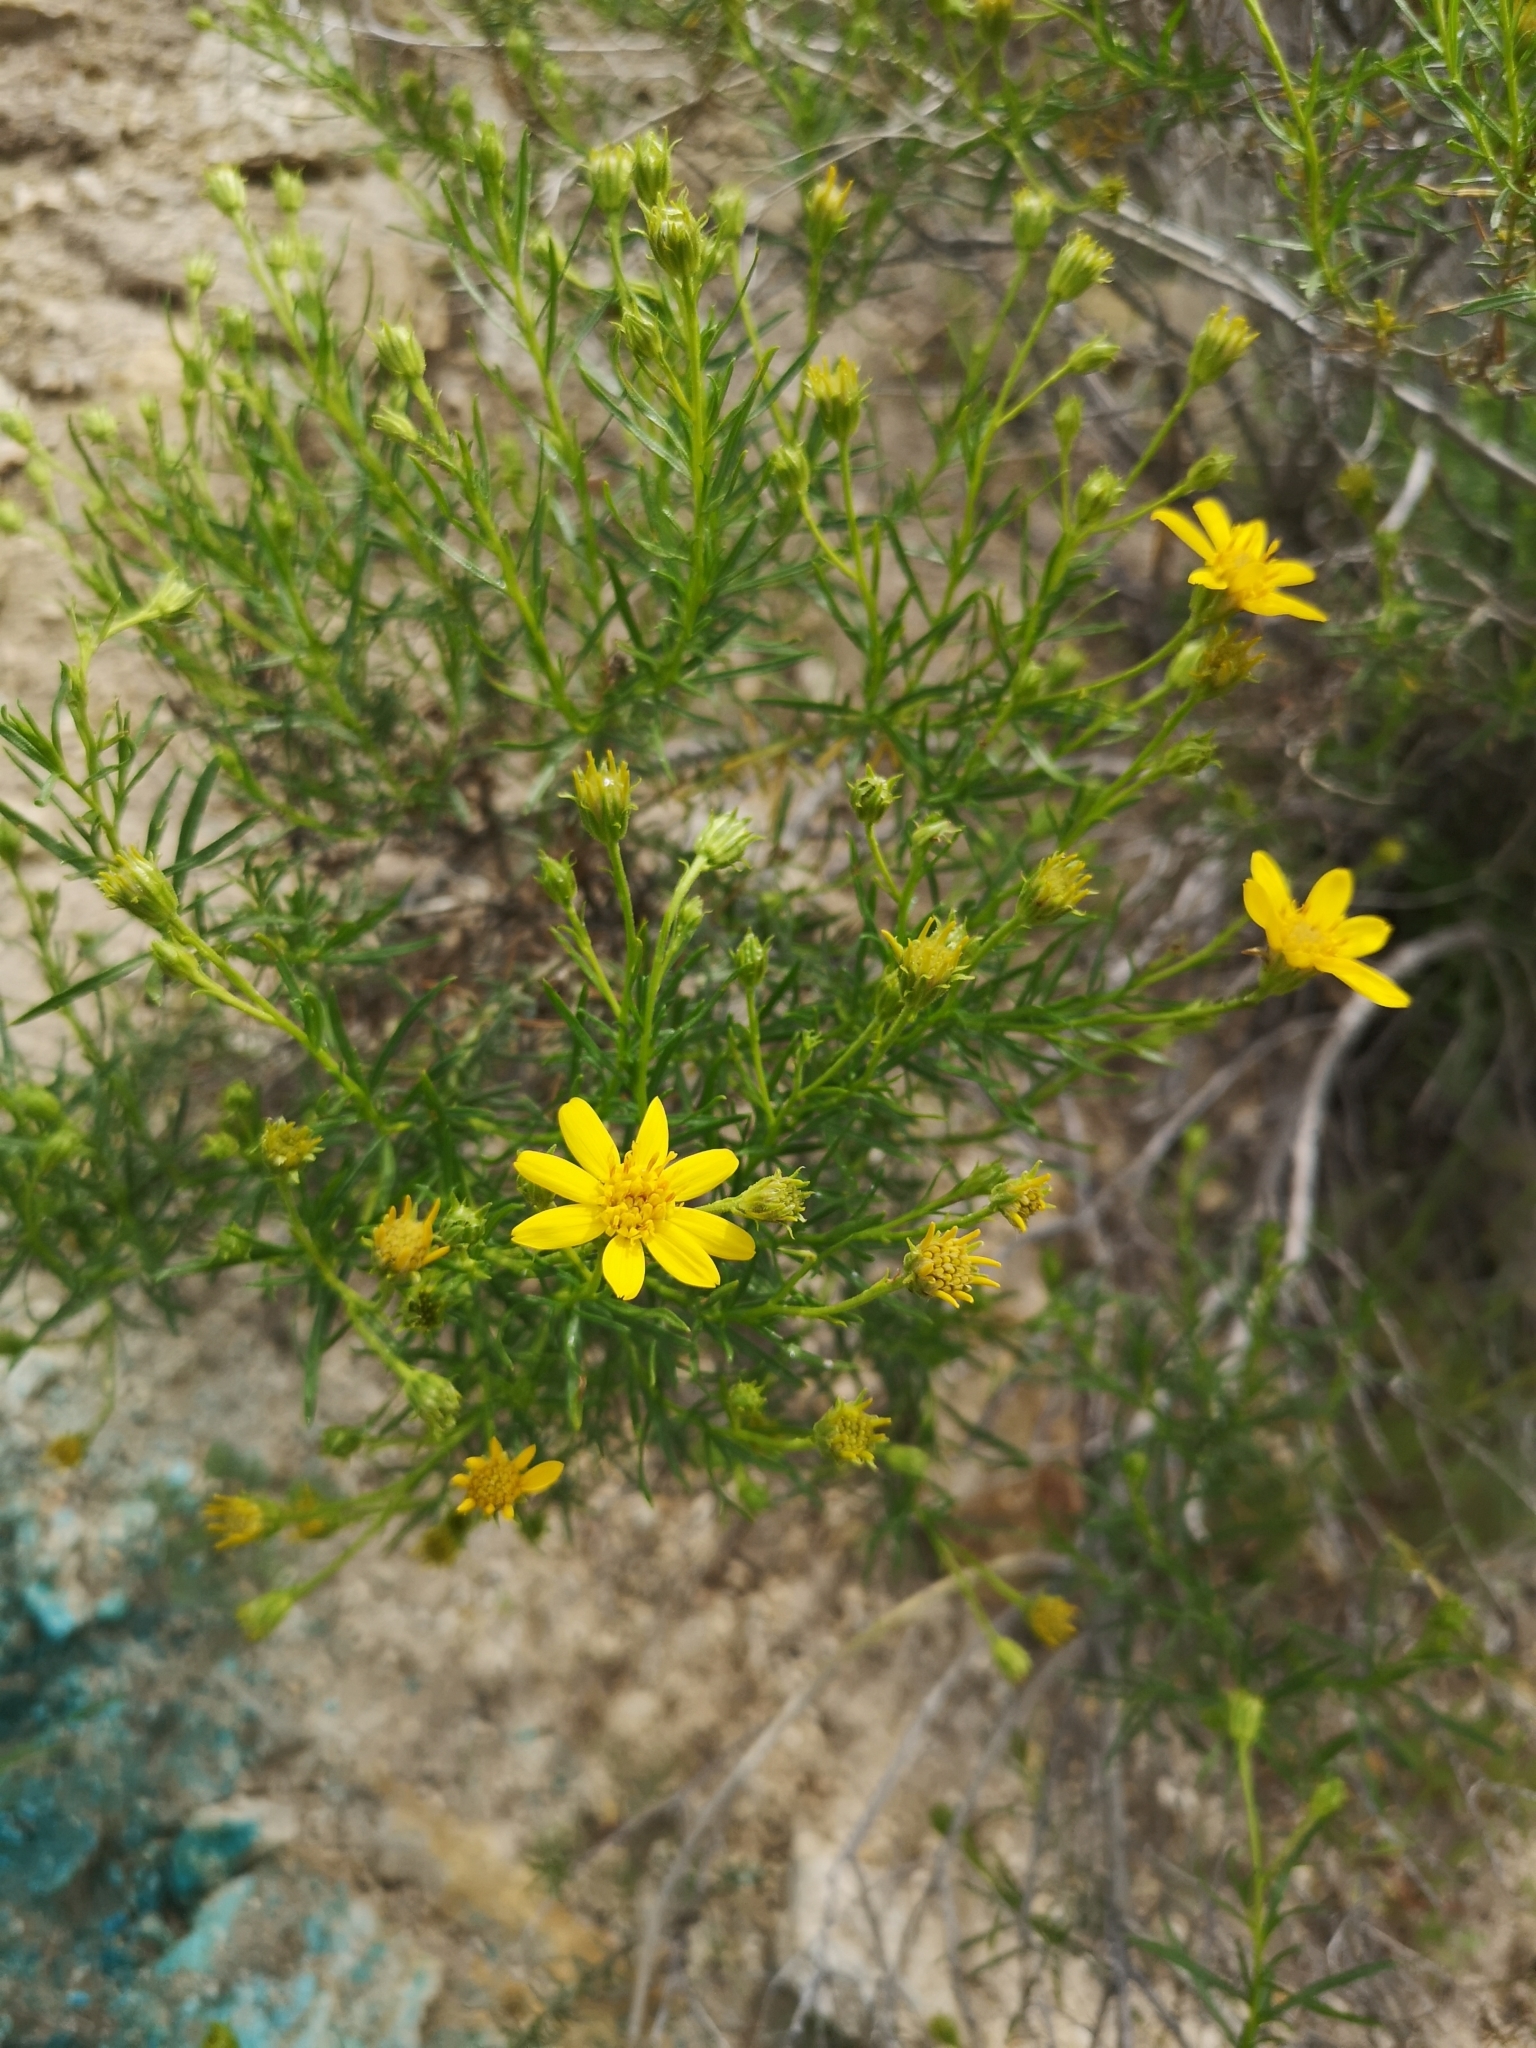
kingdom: Plantae
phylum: Tracheophyta
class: Magnoliopsida
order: Asterales
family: Asteraceae
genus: Ericameria
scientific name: Ericameria linearifolia
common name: Interior goldenbush
